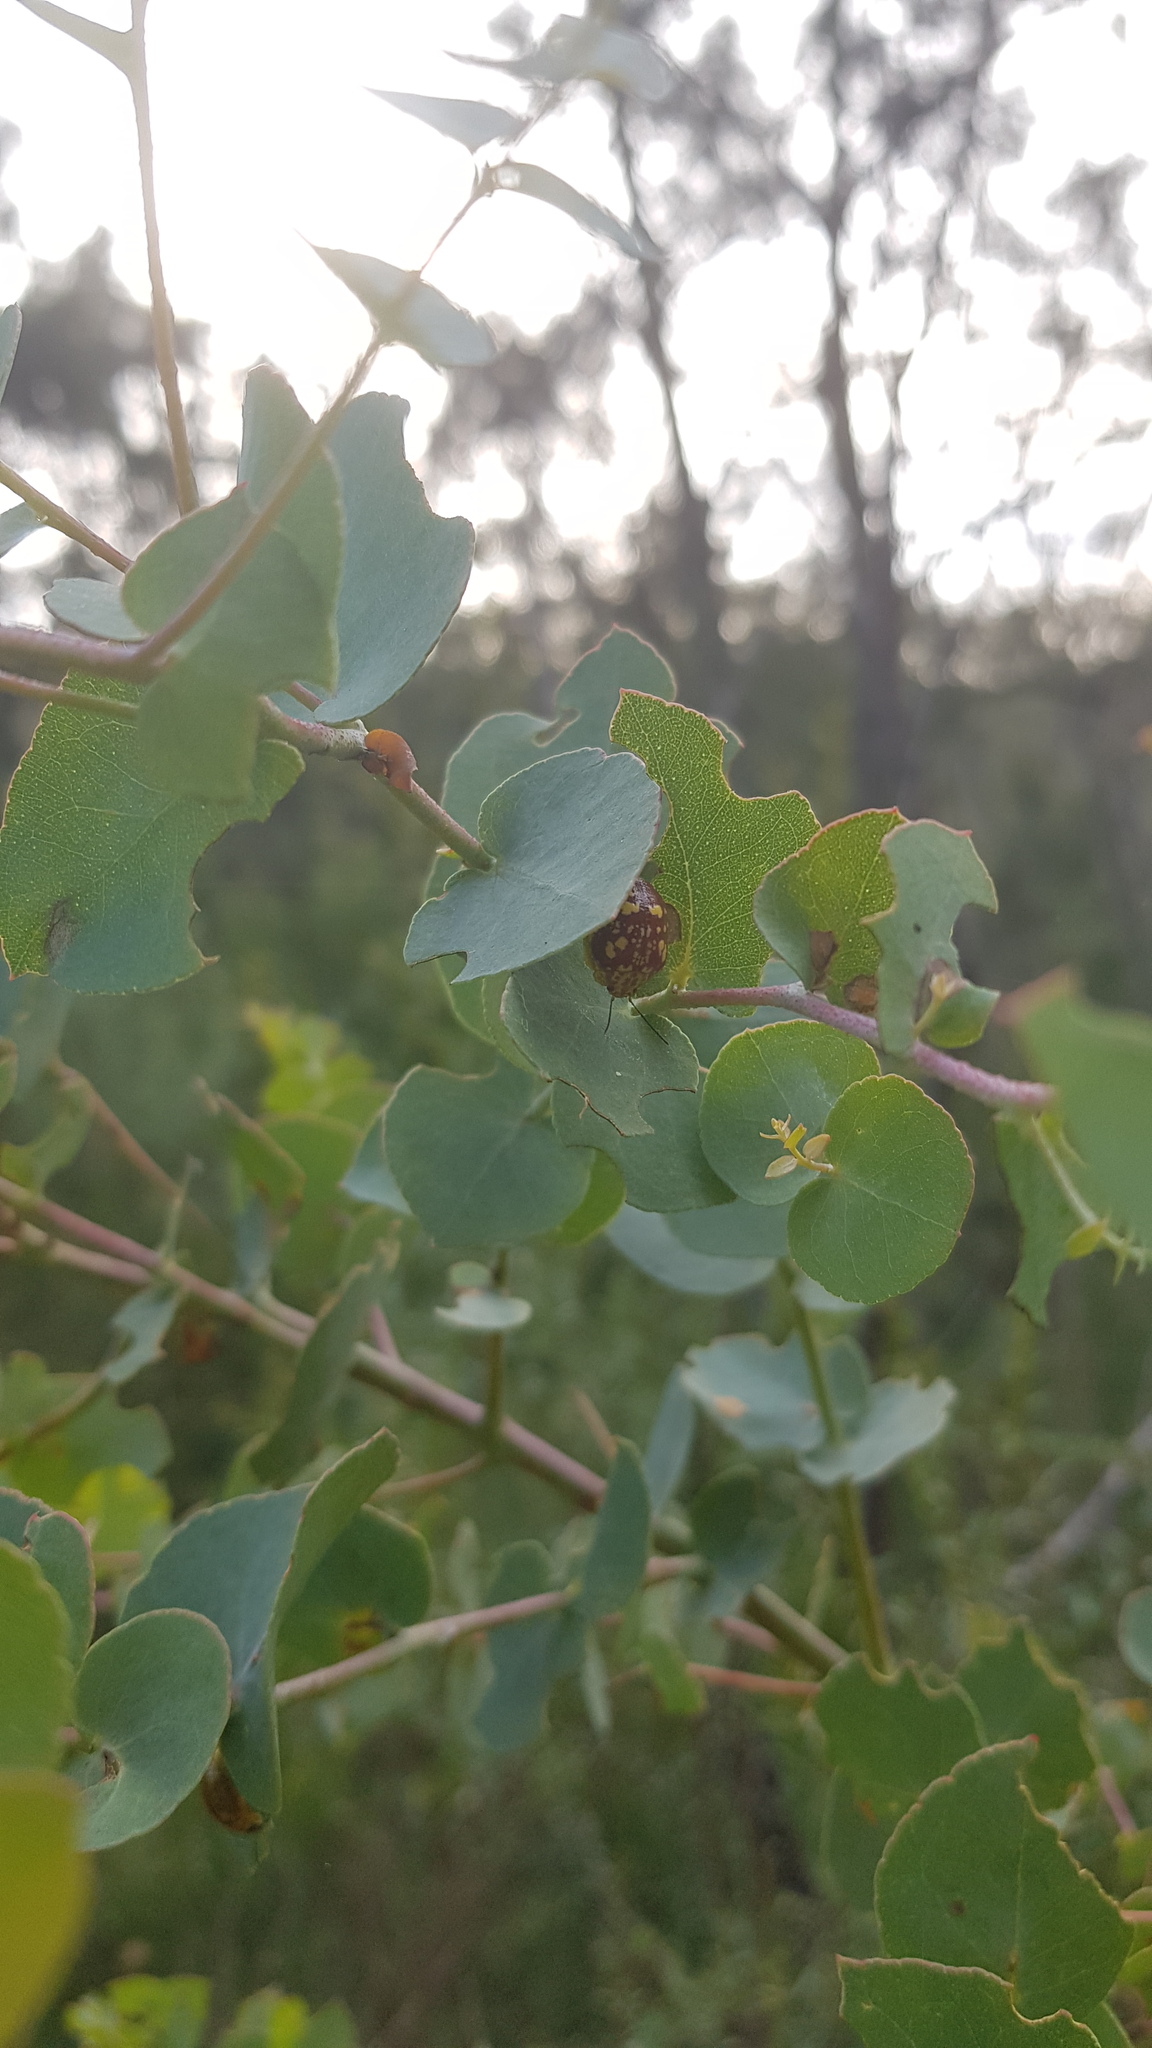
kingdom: Animalia
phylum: Arthropoda
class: Insecta
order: Coleoptera
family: Chrysomelidae
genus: Paropsis
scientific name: Paropsis maculata
